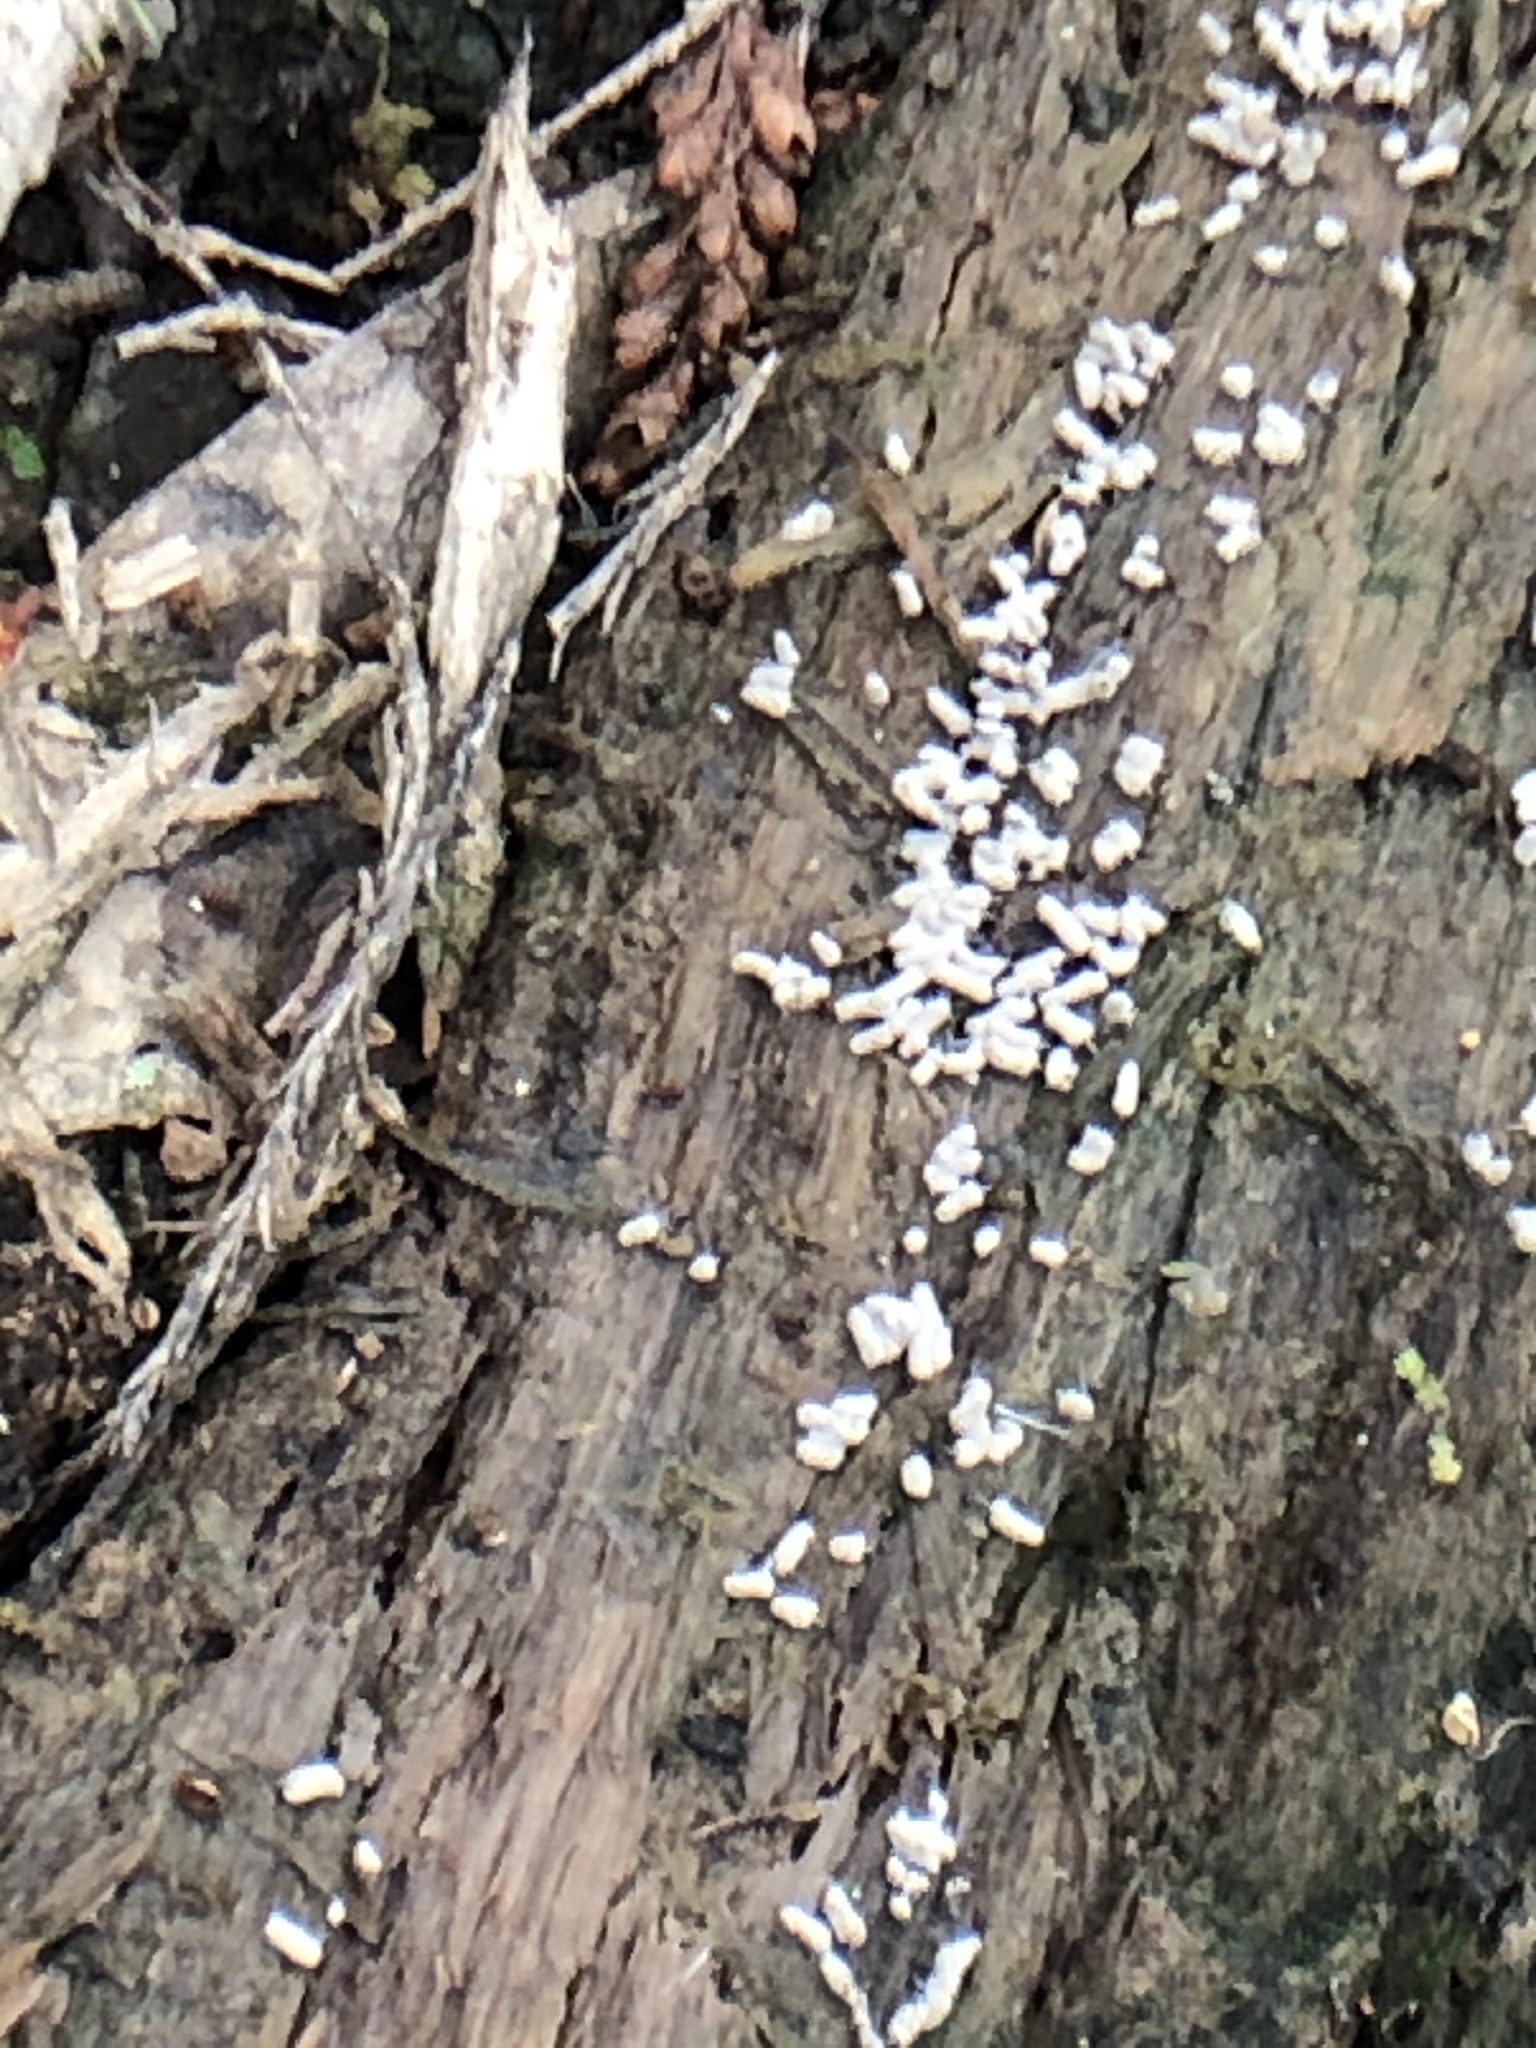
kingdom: Protozoa
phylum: Mycetozoa
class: Myxomycetes
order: Trichiales
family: Arcyriaceae
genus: Arcyria
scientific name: Arcyria cinerea
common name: White carnival candy slime mold
